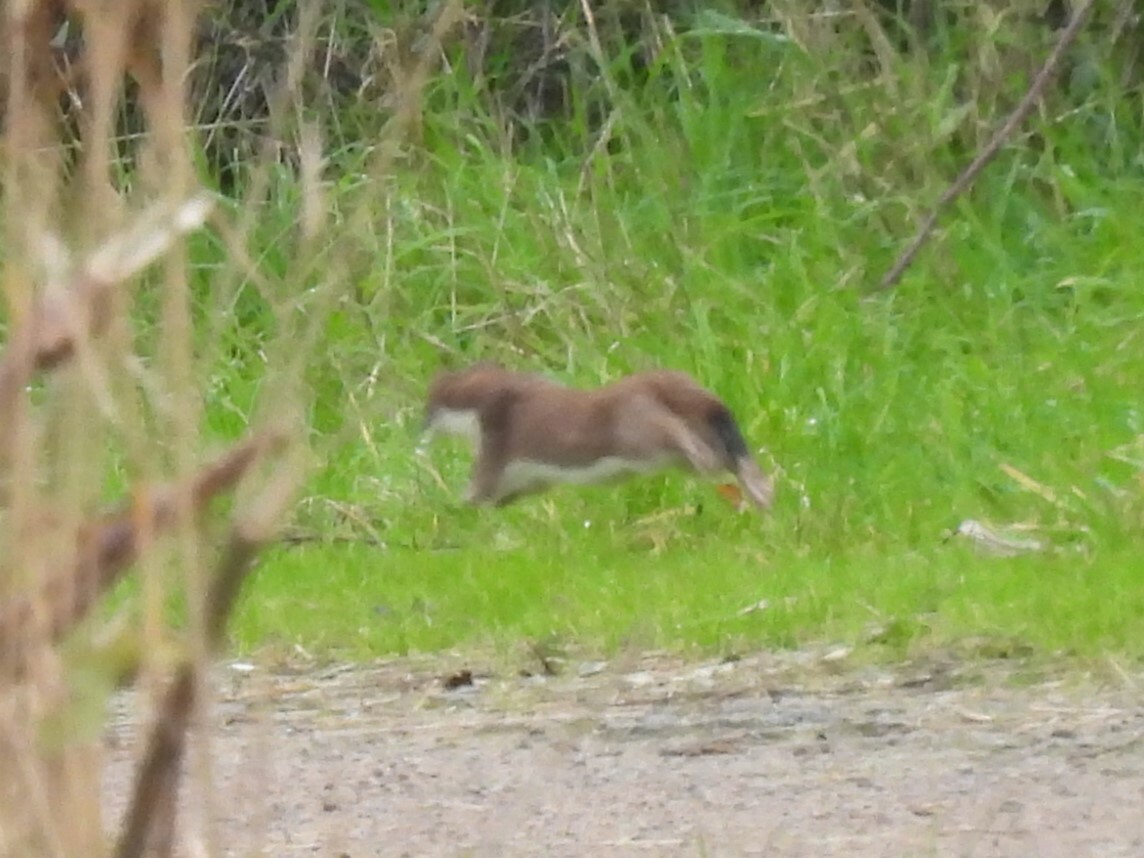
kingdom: Animalia
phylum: Chordata
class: Mammalia
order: Carnivora
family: Mustelidae
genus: Mustela
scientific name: Mustela erminea
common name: Stoat
